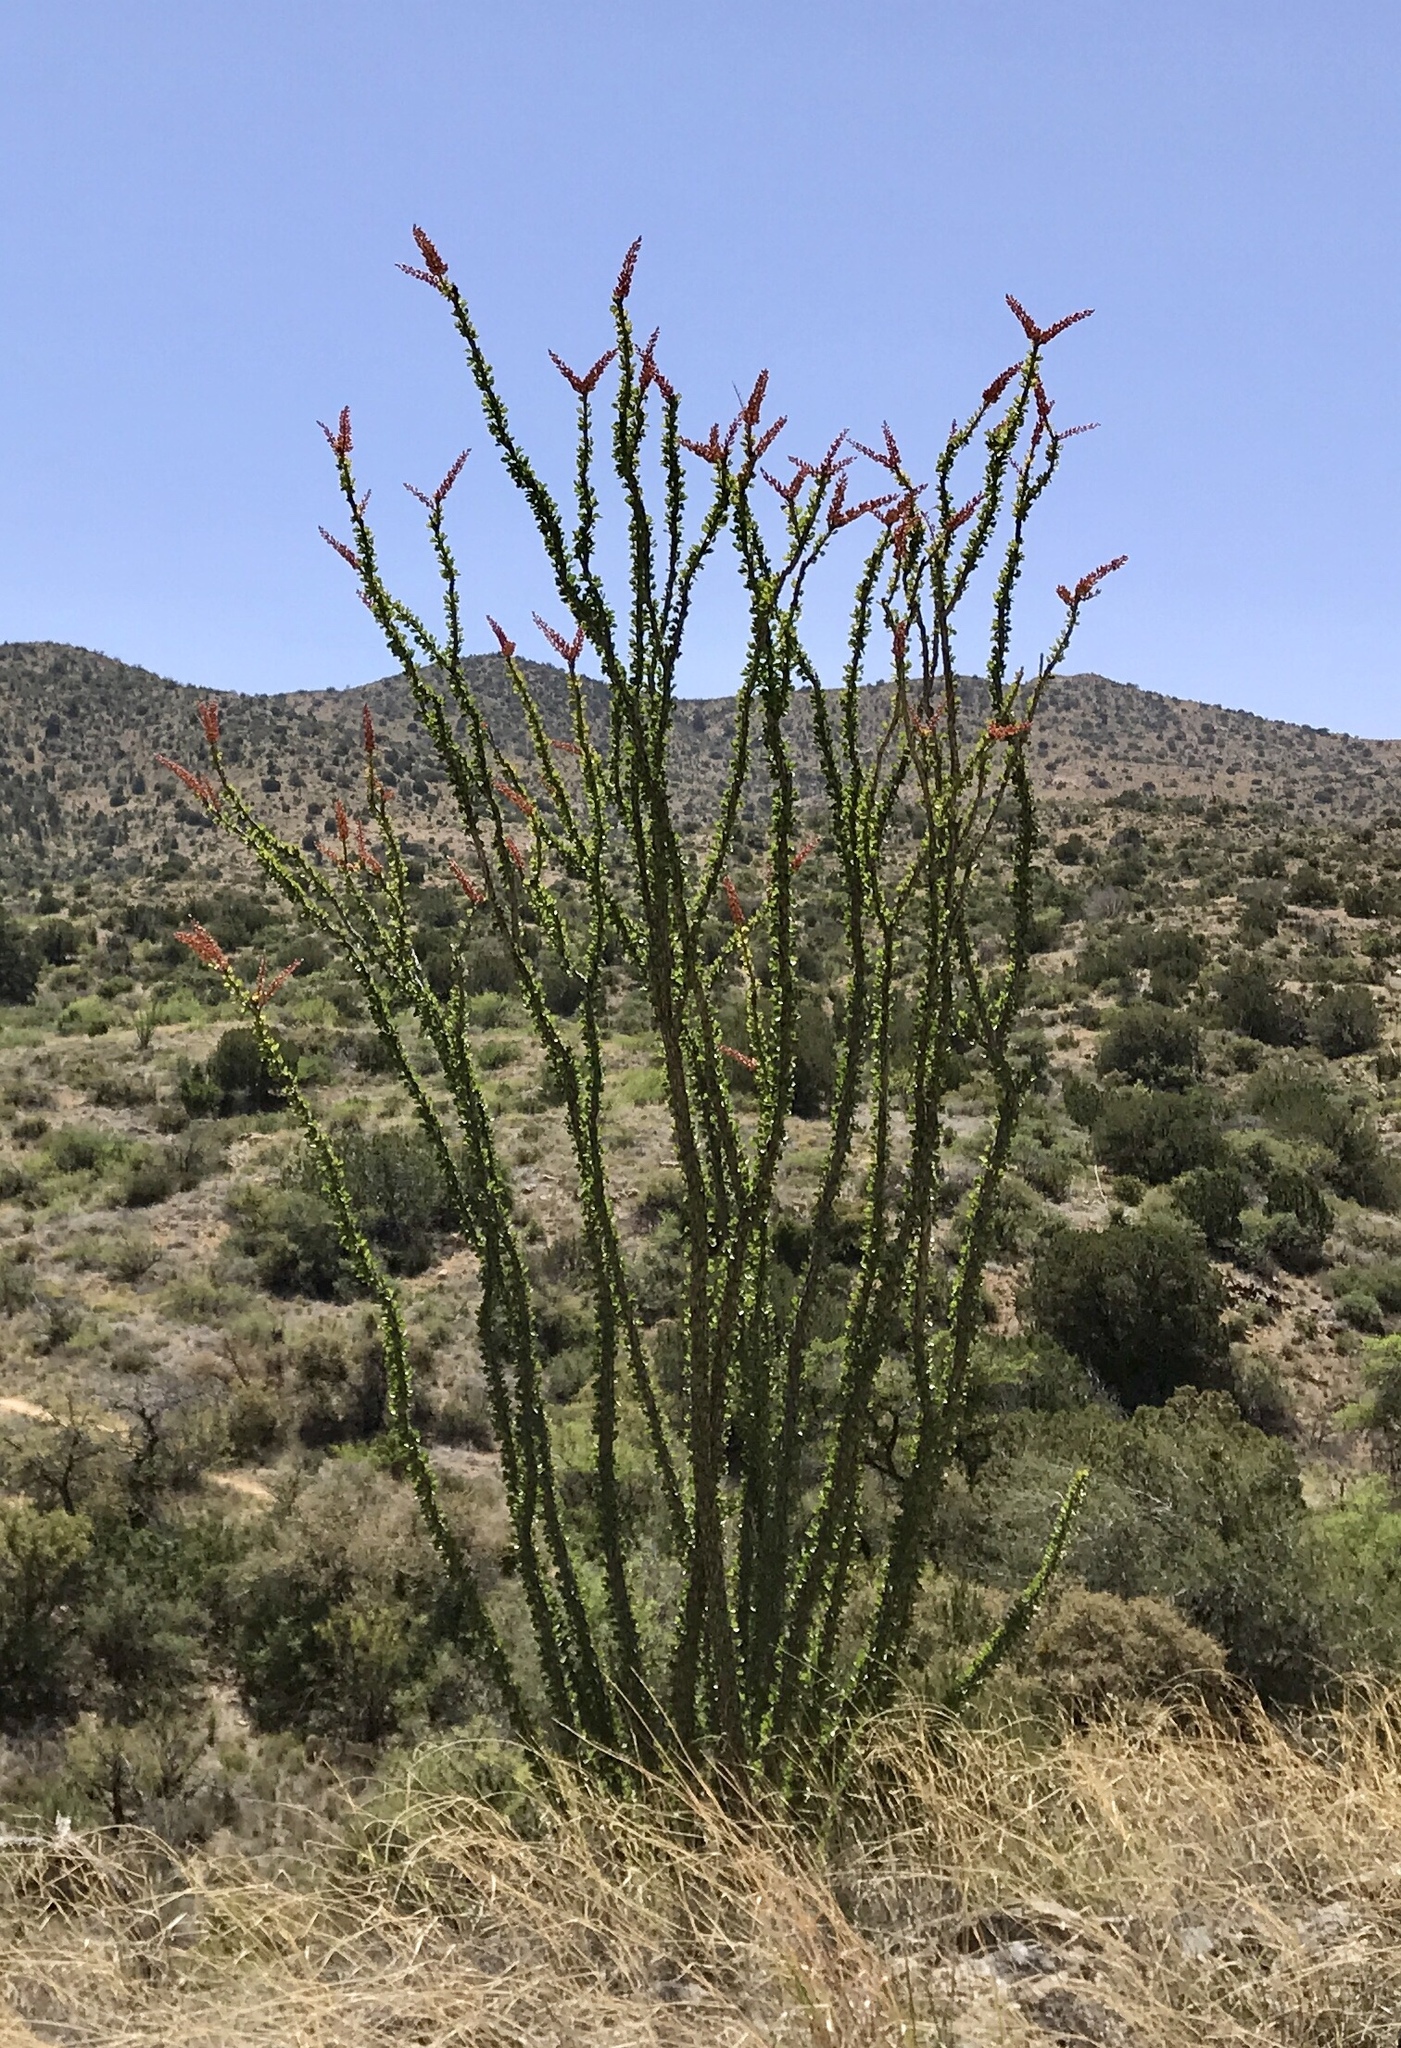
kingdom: Plantae
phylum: Tracheophyta
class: Magnoliopsida
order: Ericales
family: Fouquieriaceae
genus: Fouquieria
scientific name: Fouquieria splendens
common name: Vine-cactus
